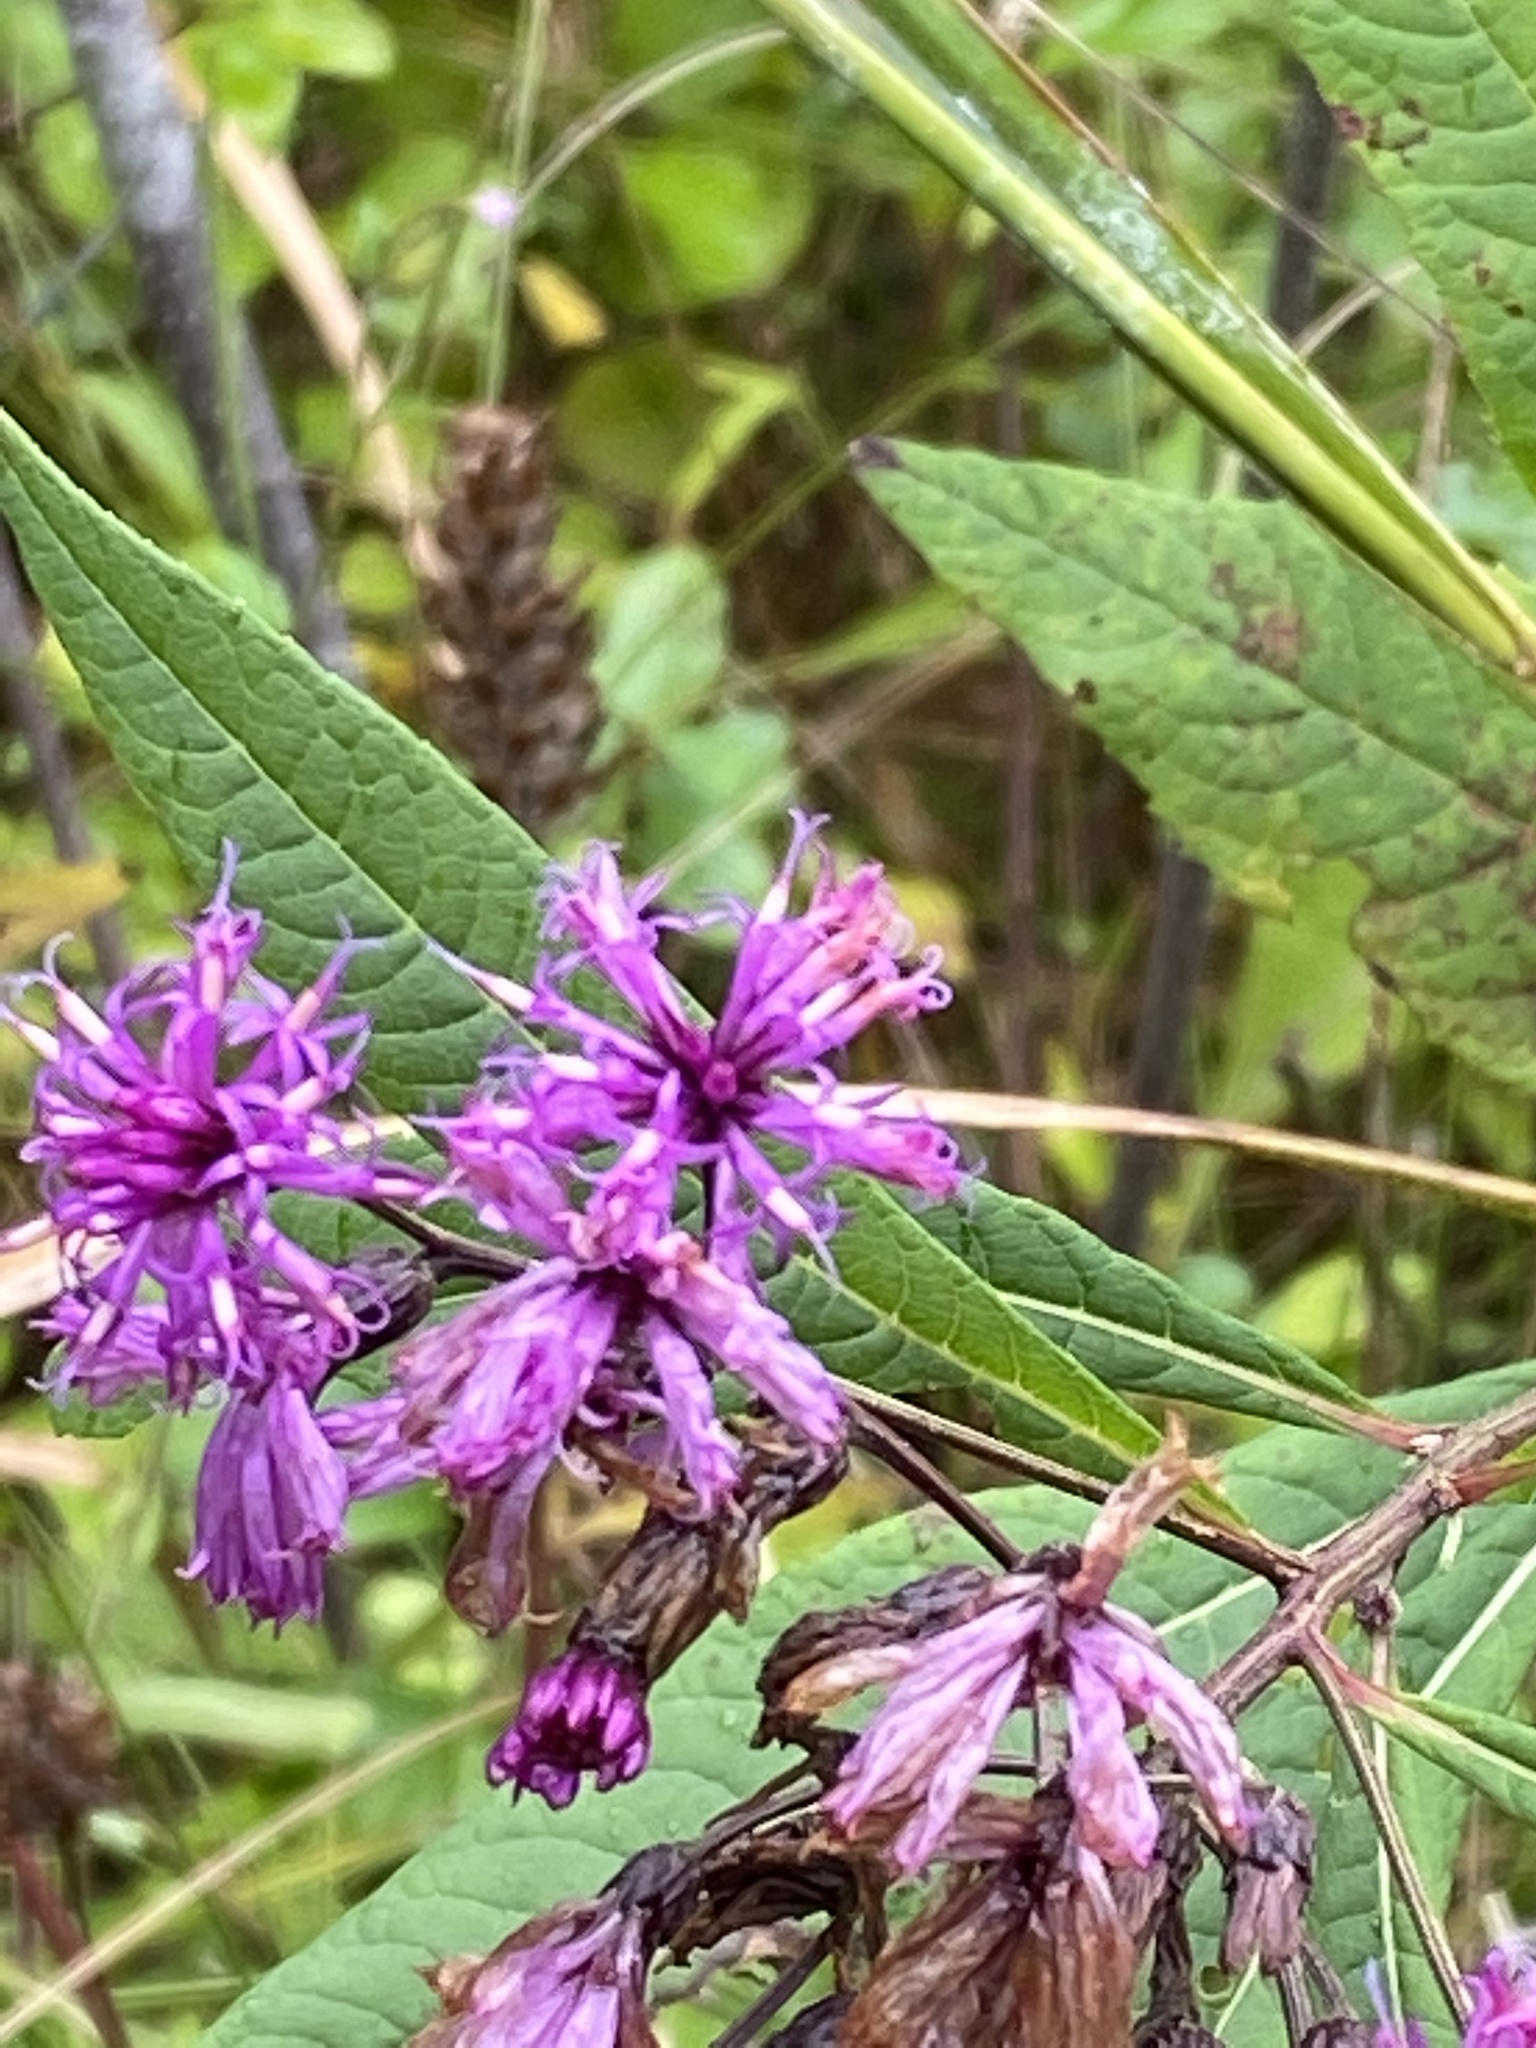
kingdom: Plantae
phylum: Tracheophyta
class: Magnoliopsida
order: Asterales
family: Asteraceae
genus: Vernonia
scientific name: Vernonia gigantea
